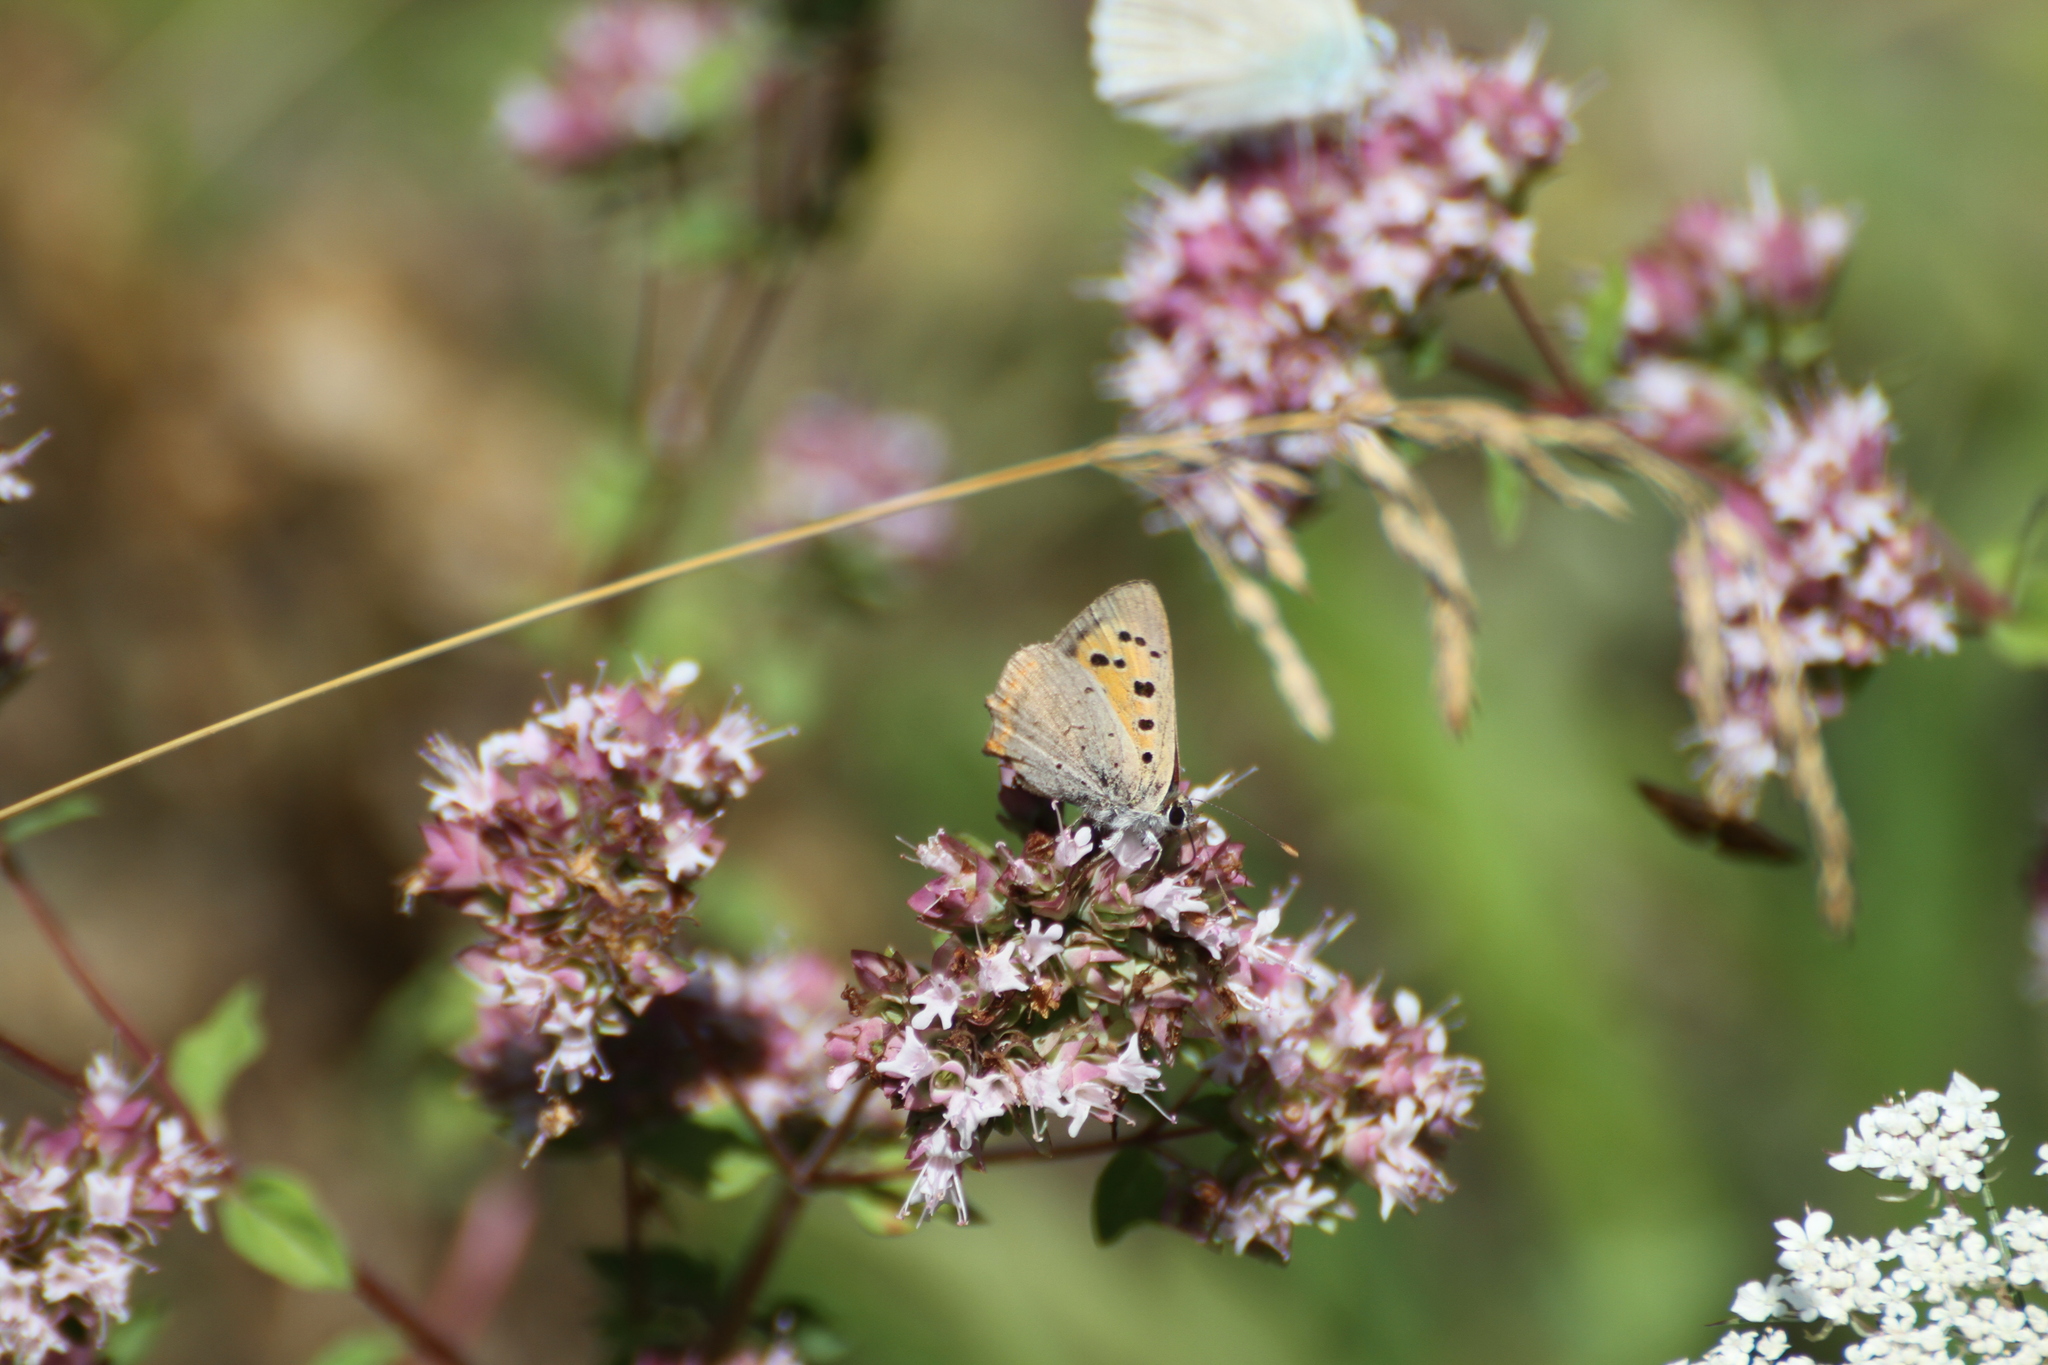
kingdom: Animalia
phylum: Arthropoda
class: Insecta
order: Lepidoptera
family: Lycaenidae
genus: Lycaena
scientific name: Lycaena phlaeas
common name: Small copper
